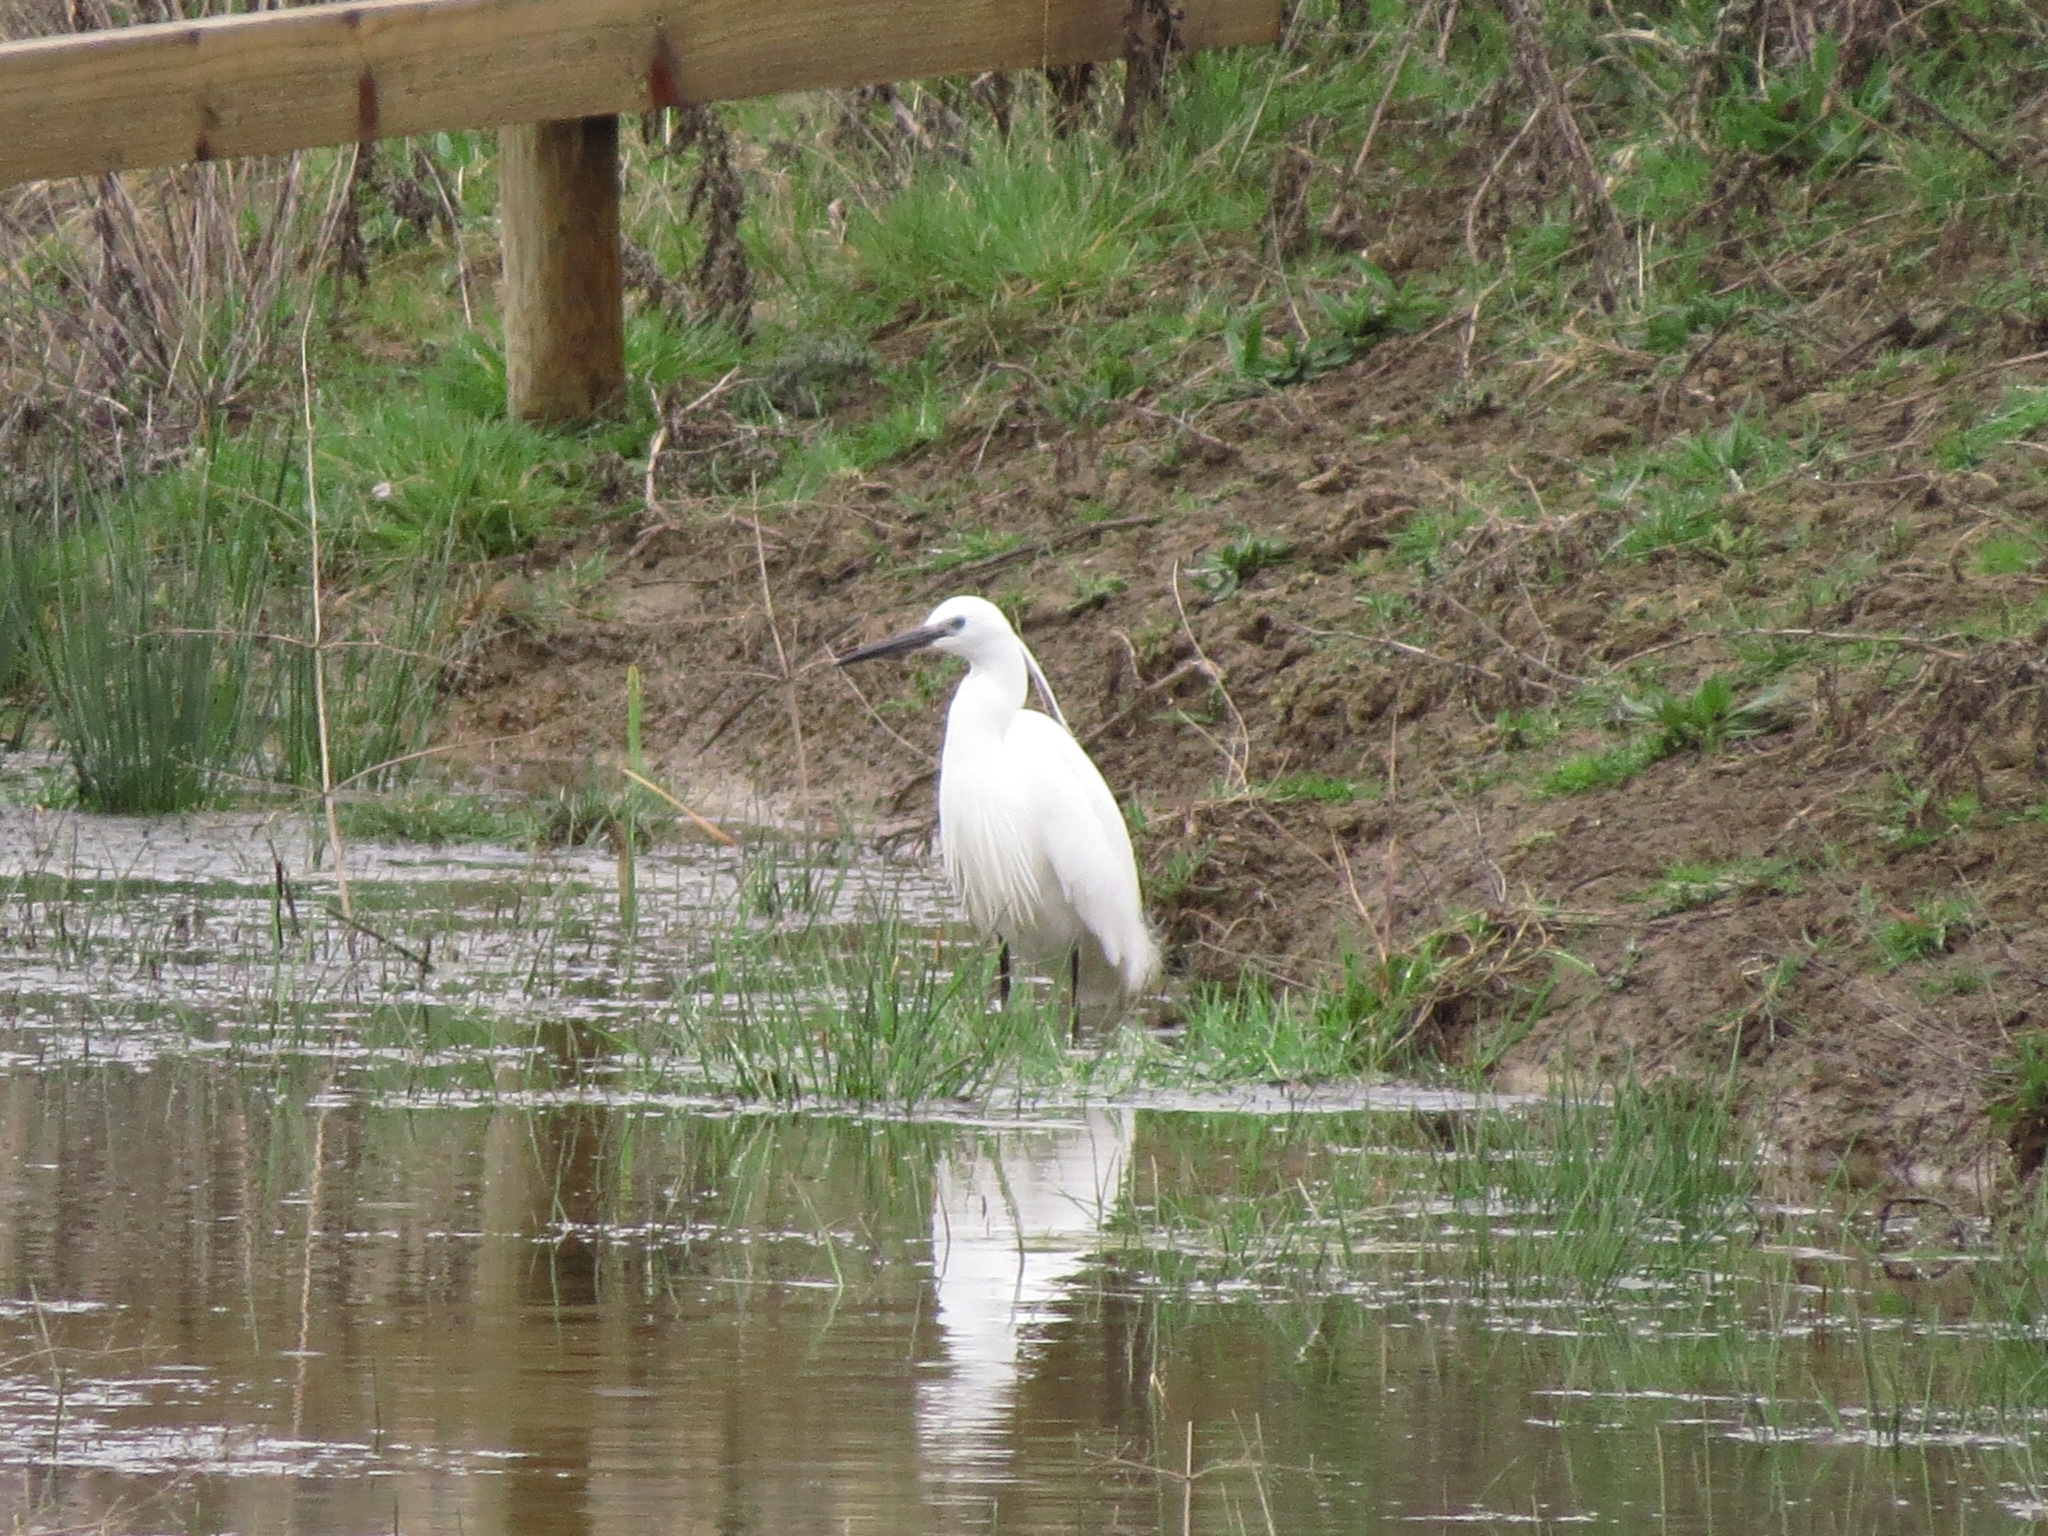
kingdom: Animalia
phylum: Chordata
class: Aves
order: Pelecaniformes
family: Ardeidae
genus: Egretta
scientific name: Egretta garzetta
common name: Little egret
